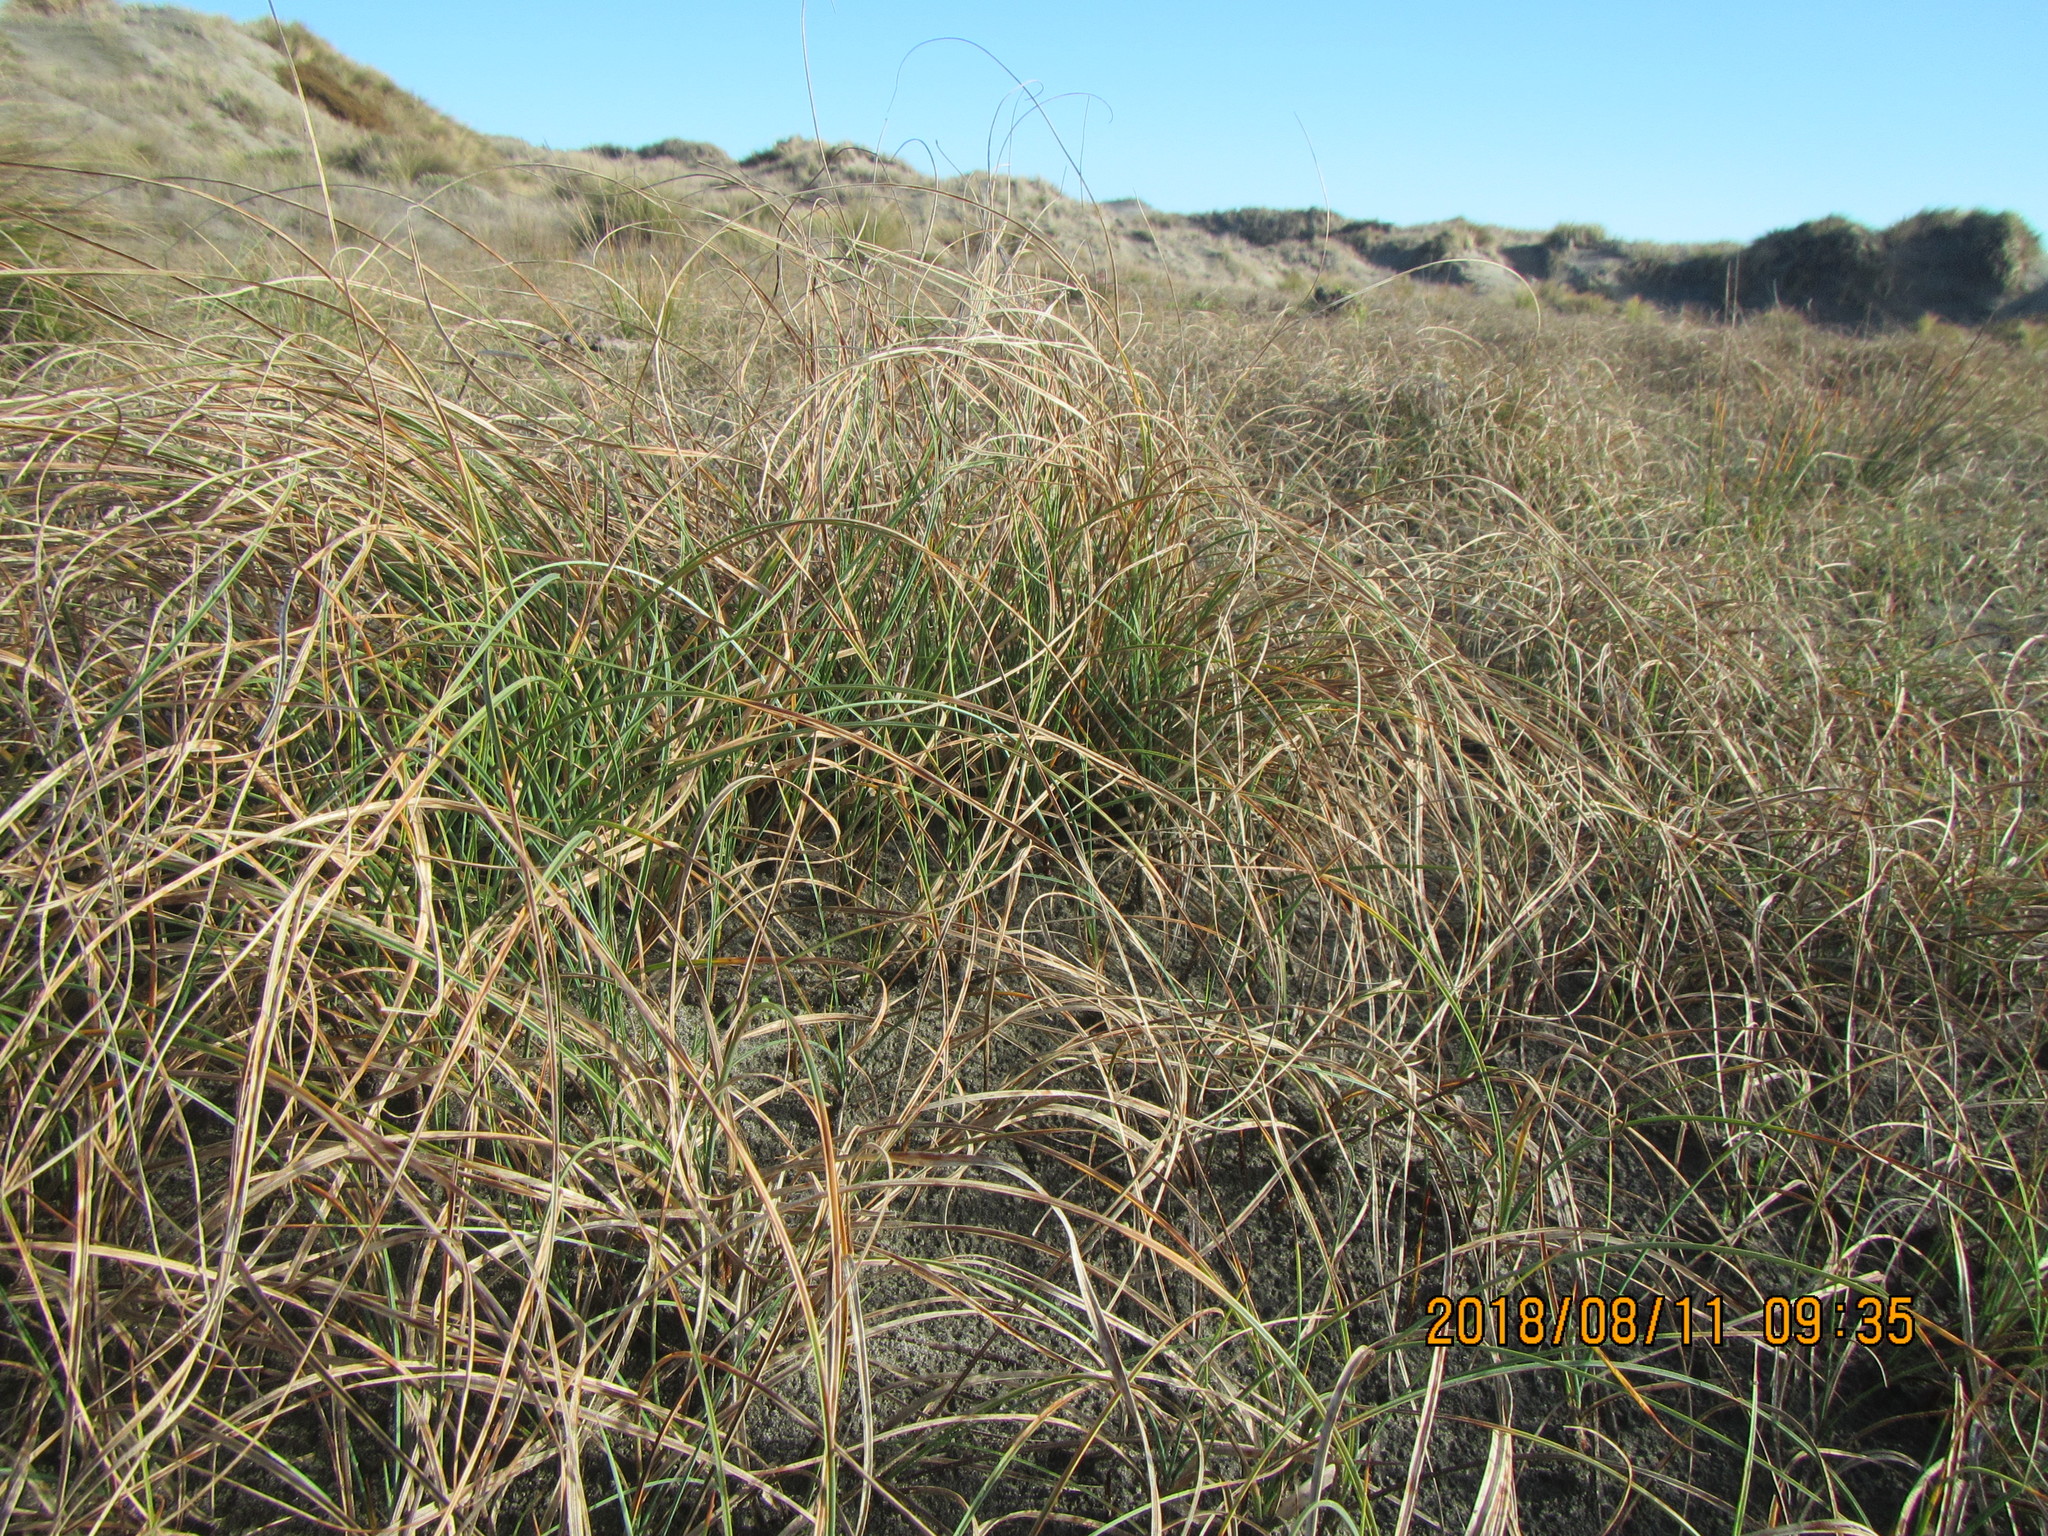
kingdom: Plantae
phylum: Tracheophyta
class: Liliopsida
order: Poales
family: Cyperaceae
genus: Carex
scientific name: Carex pumila
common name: Dwarf sedge
